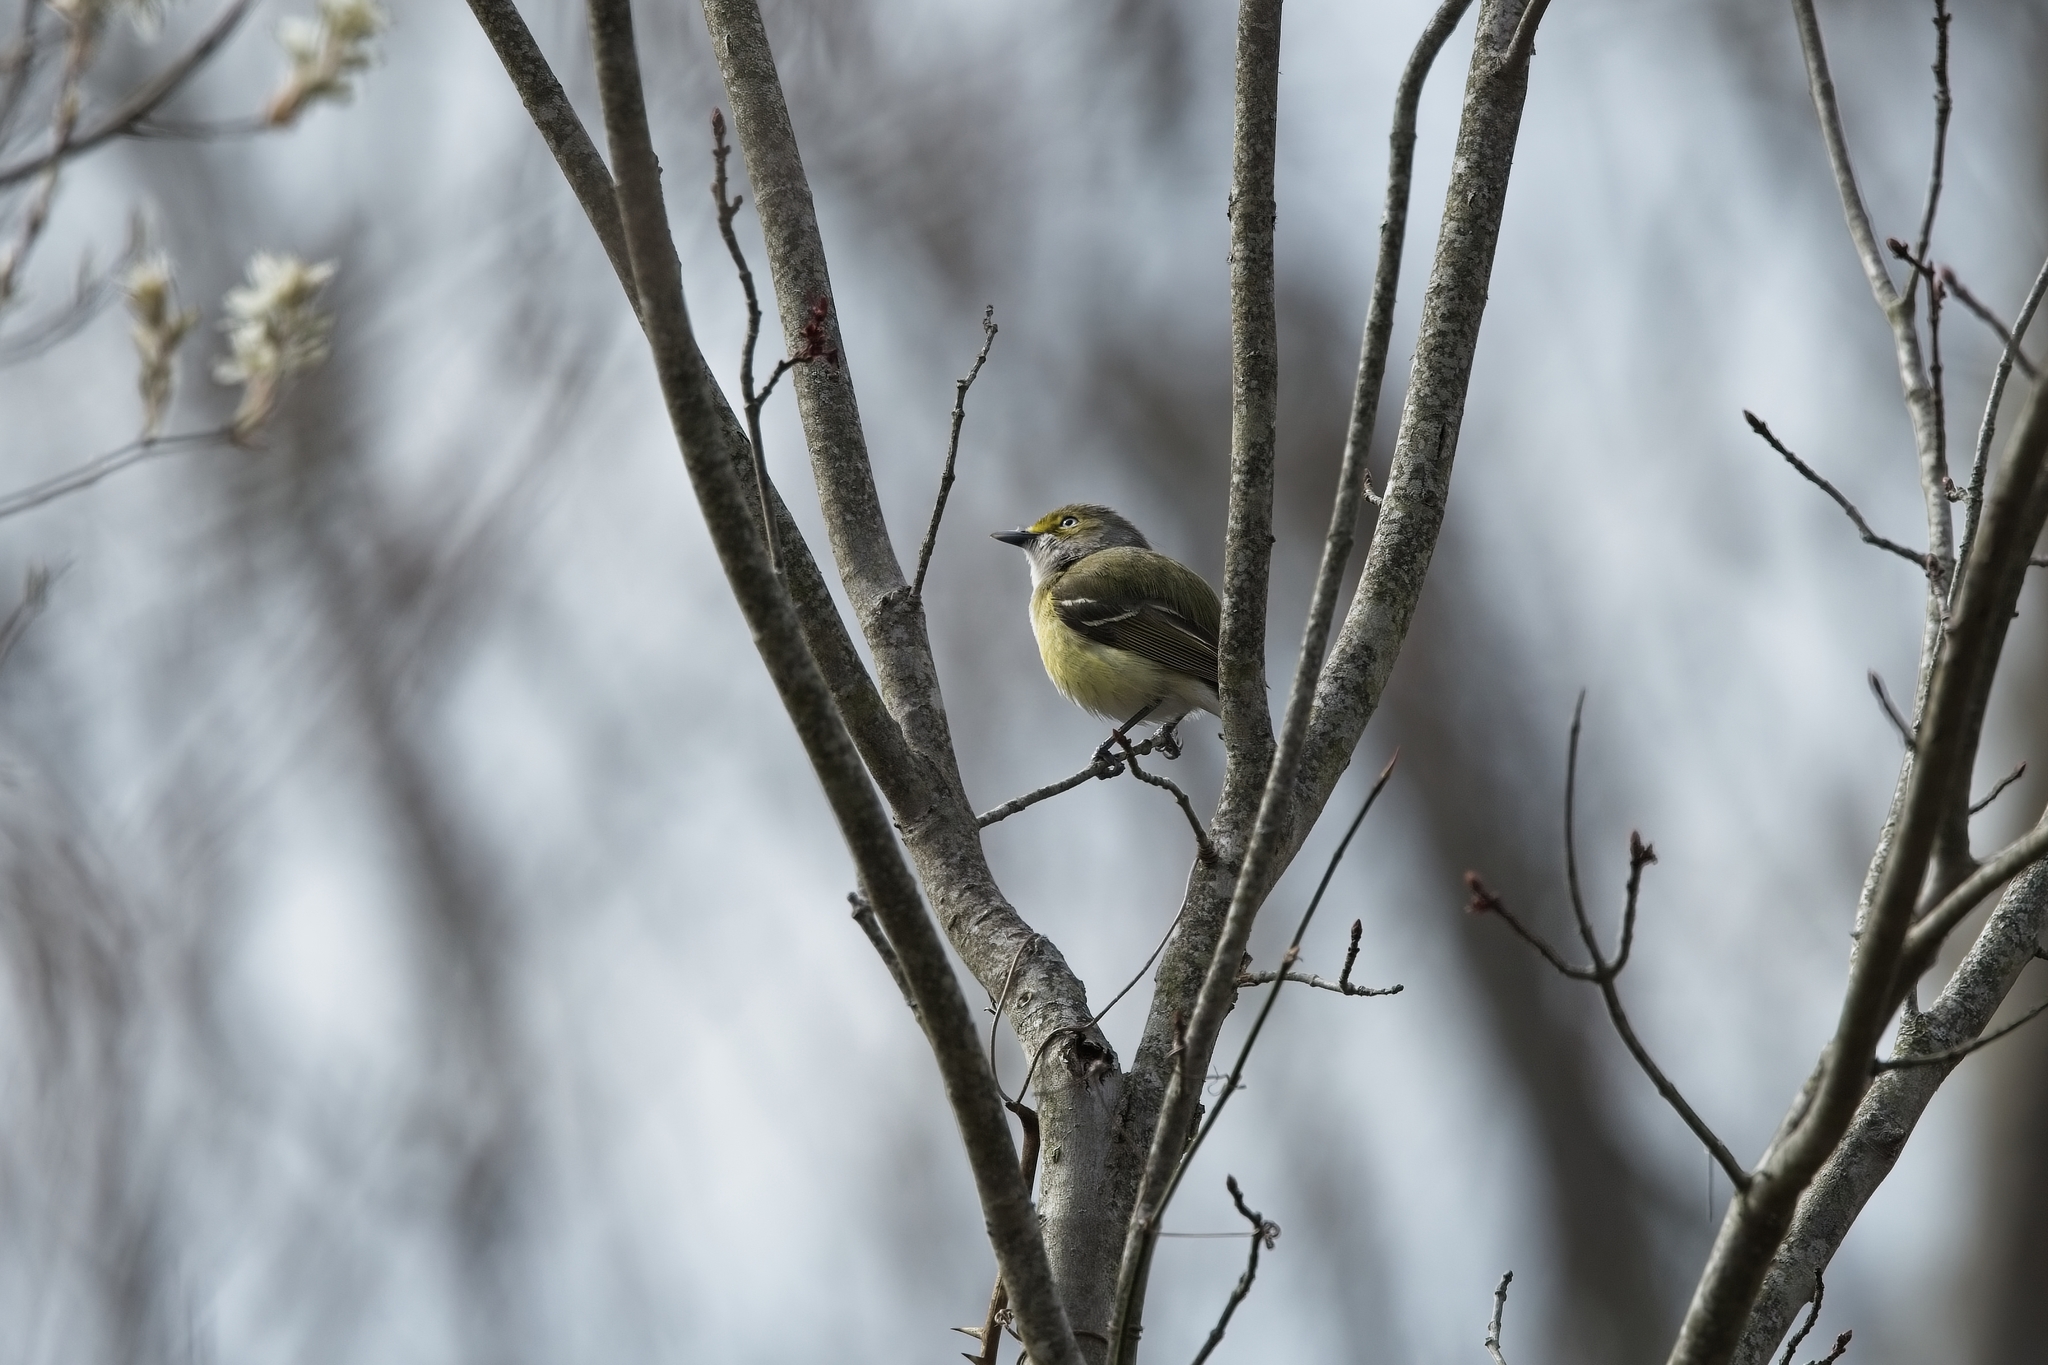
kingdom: Animalia
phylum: Chordata
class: Aves
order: Passeriformes
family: Vireonidae
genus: Vireo
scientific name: Vireo griseus
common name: White-eyed vireo
